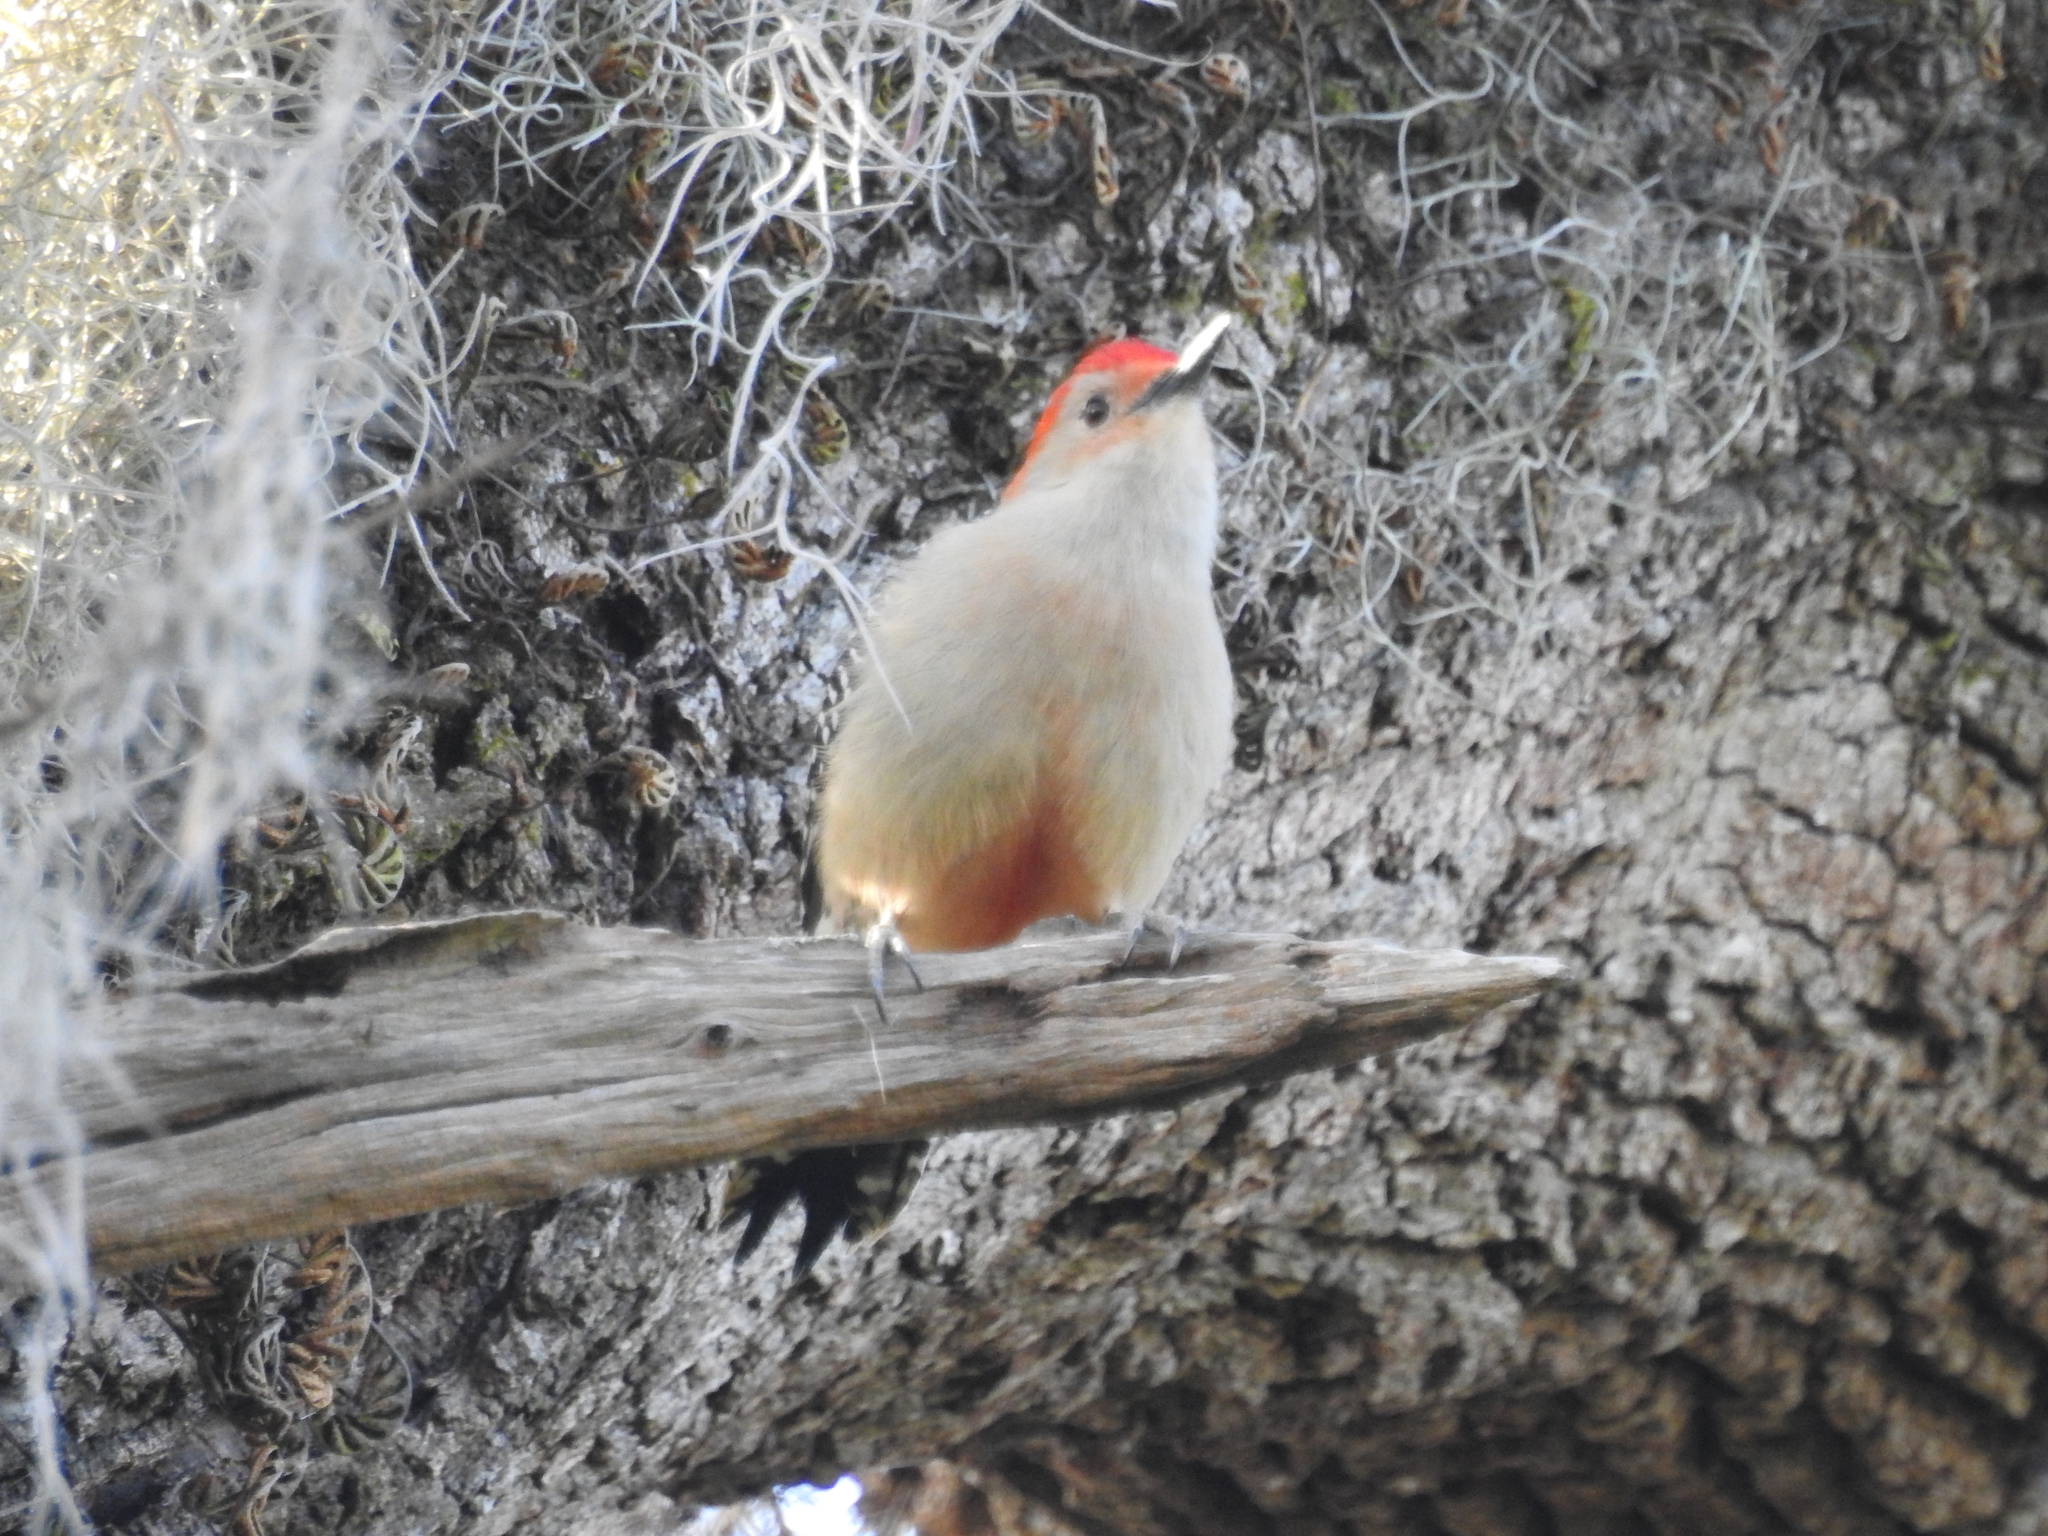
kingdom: Animalia
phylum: Chordata
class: Aves
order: Piciformes
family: Picidae
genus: Melanerpes
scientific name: Melanerpes carolinus
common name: Red-bellied woodpecker
